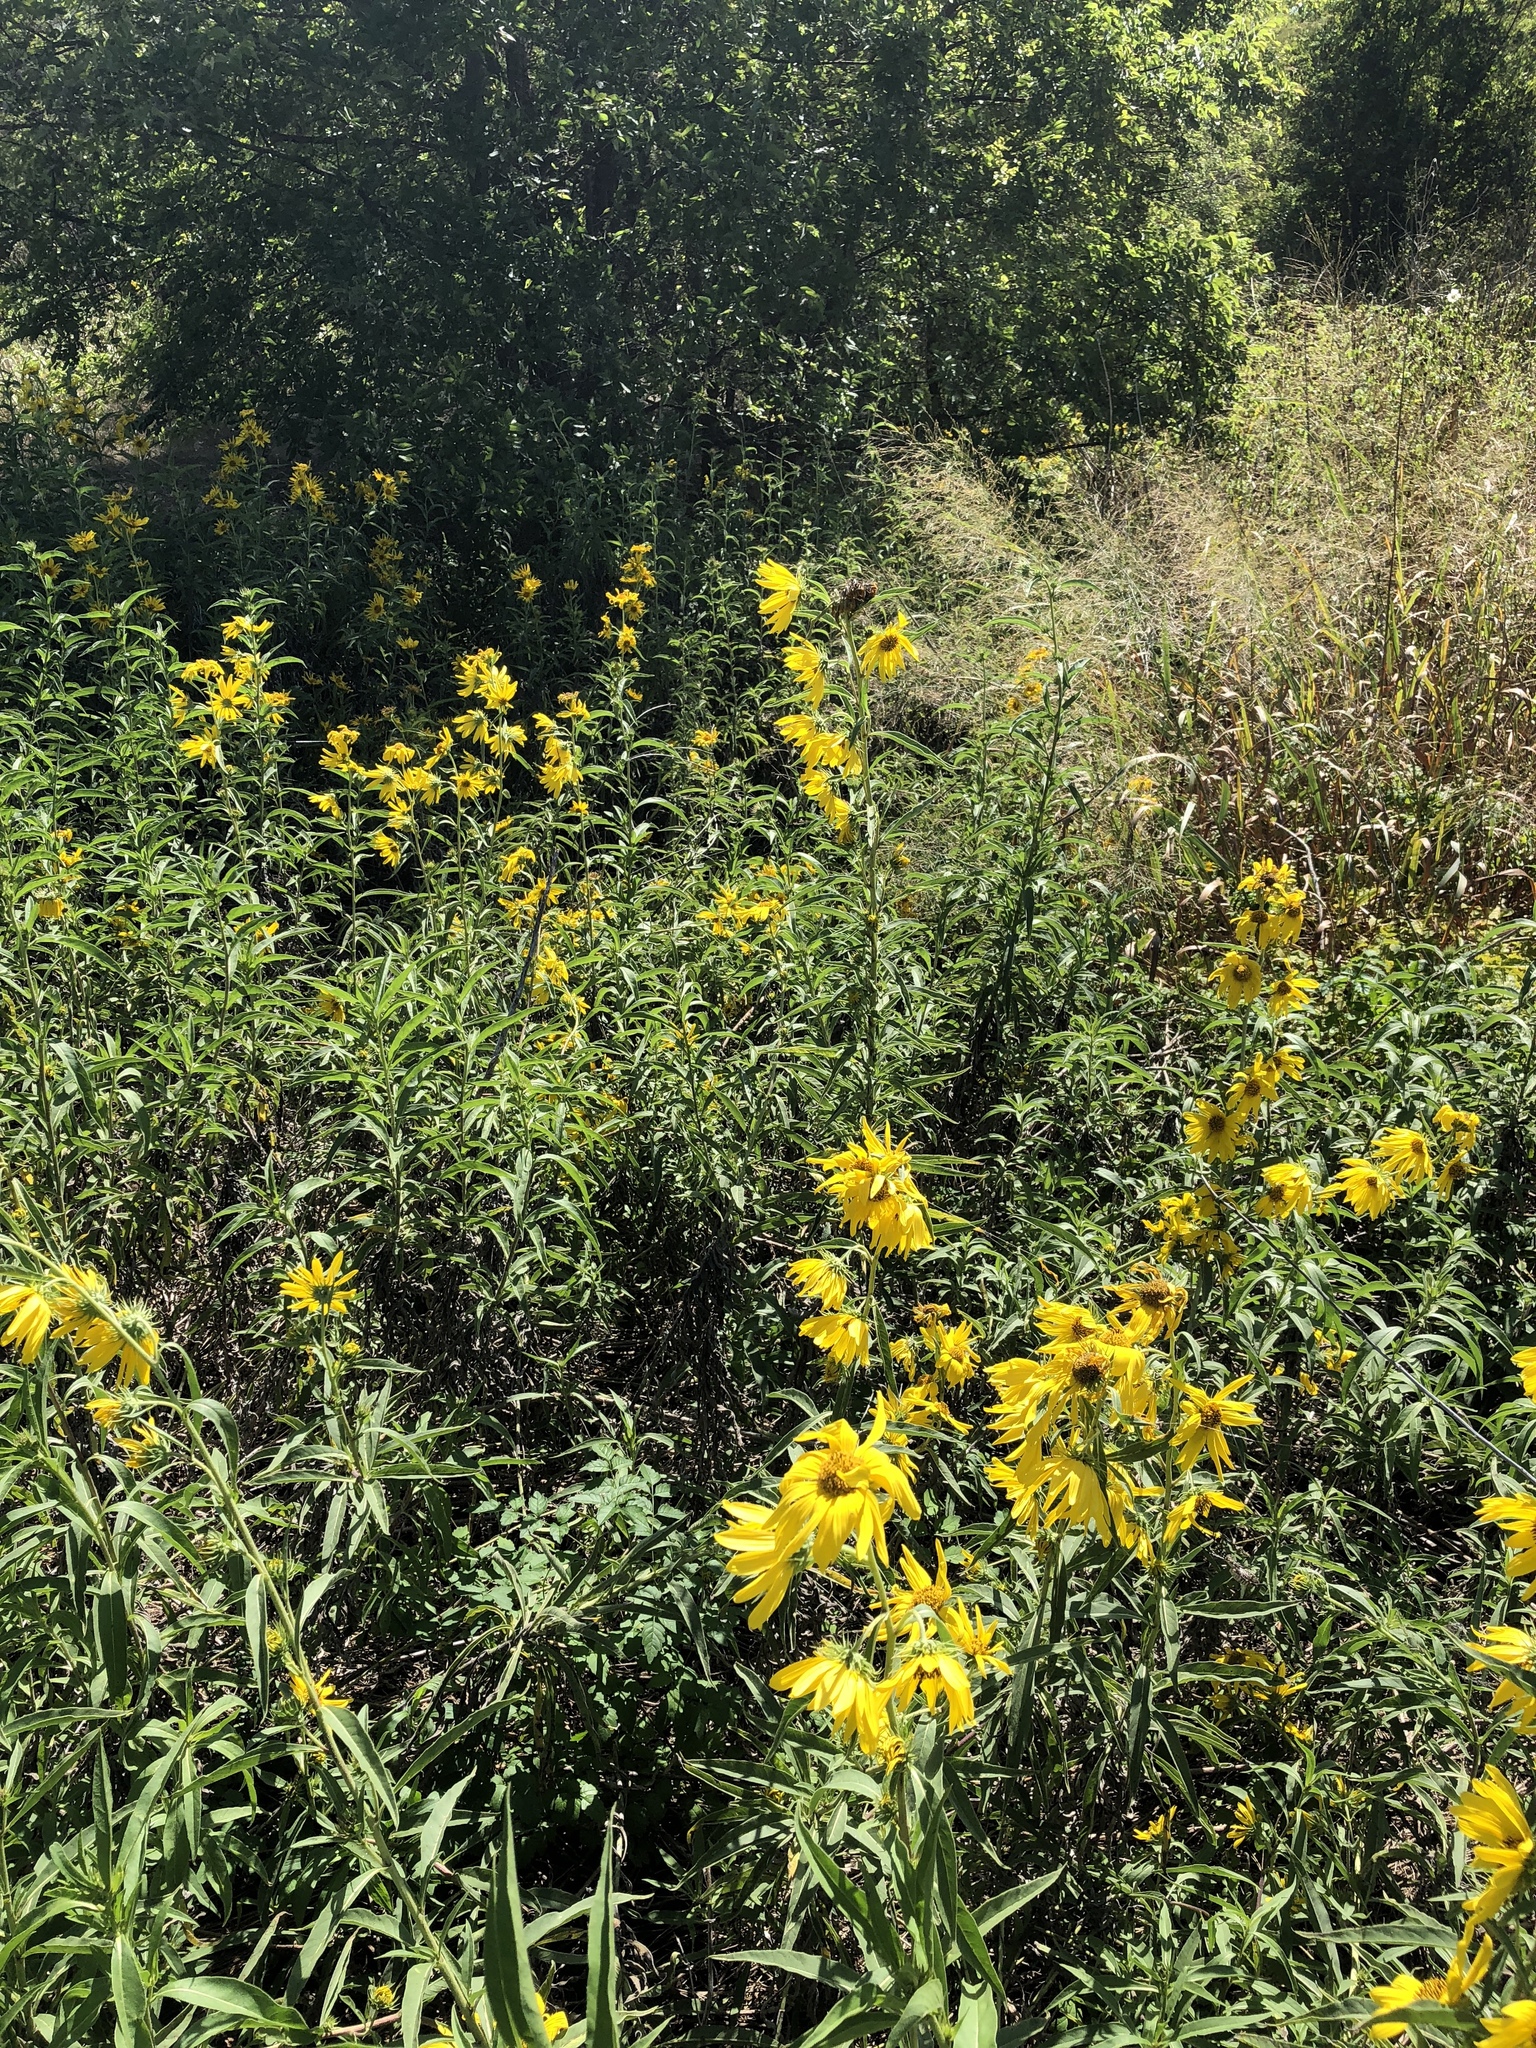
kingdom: Plantae
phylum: Tracheophyta
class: Magnoliopsida
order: Asterales
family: Asteraceae
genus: Helianthus
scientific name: Helianthus maximiliani
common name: Maximilian's sunflower
